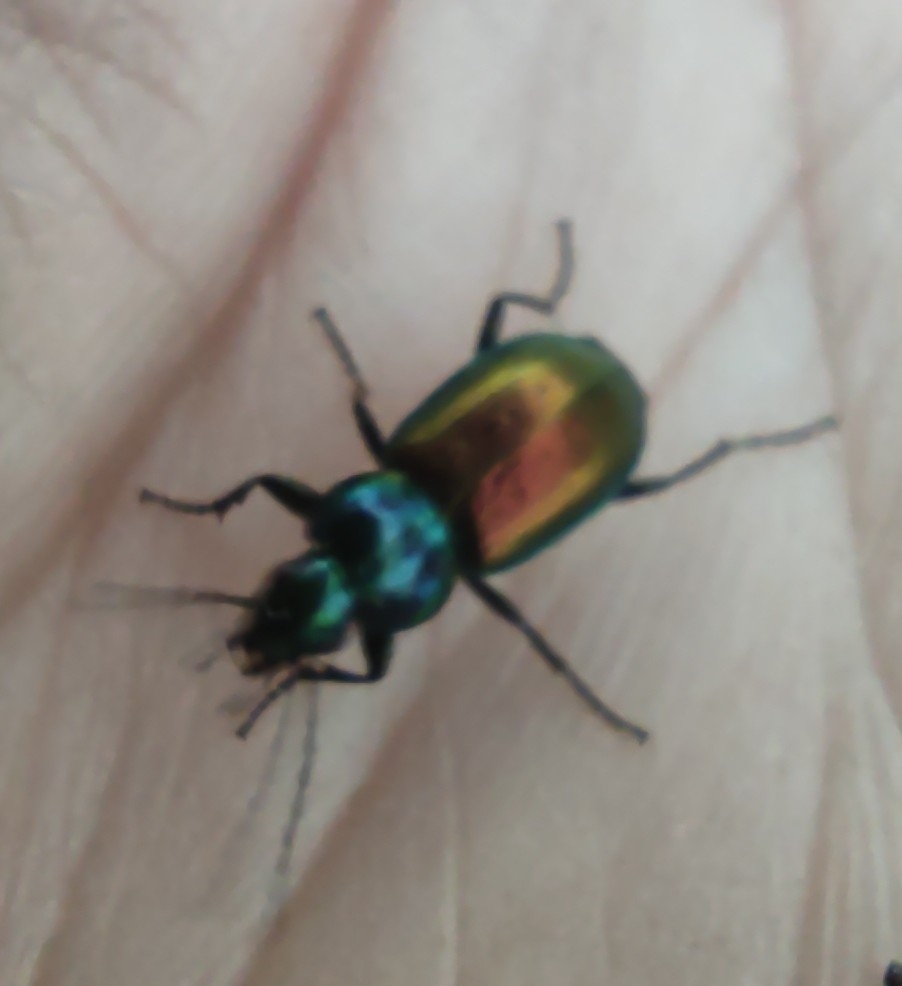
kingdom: Animalia
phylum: Arthropoda
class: Insecta
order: Coleoptera
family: Carabidae
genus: Agonum
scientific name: Agonum sexpunctatum
